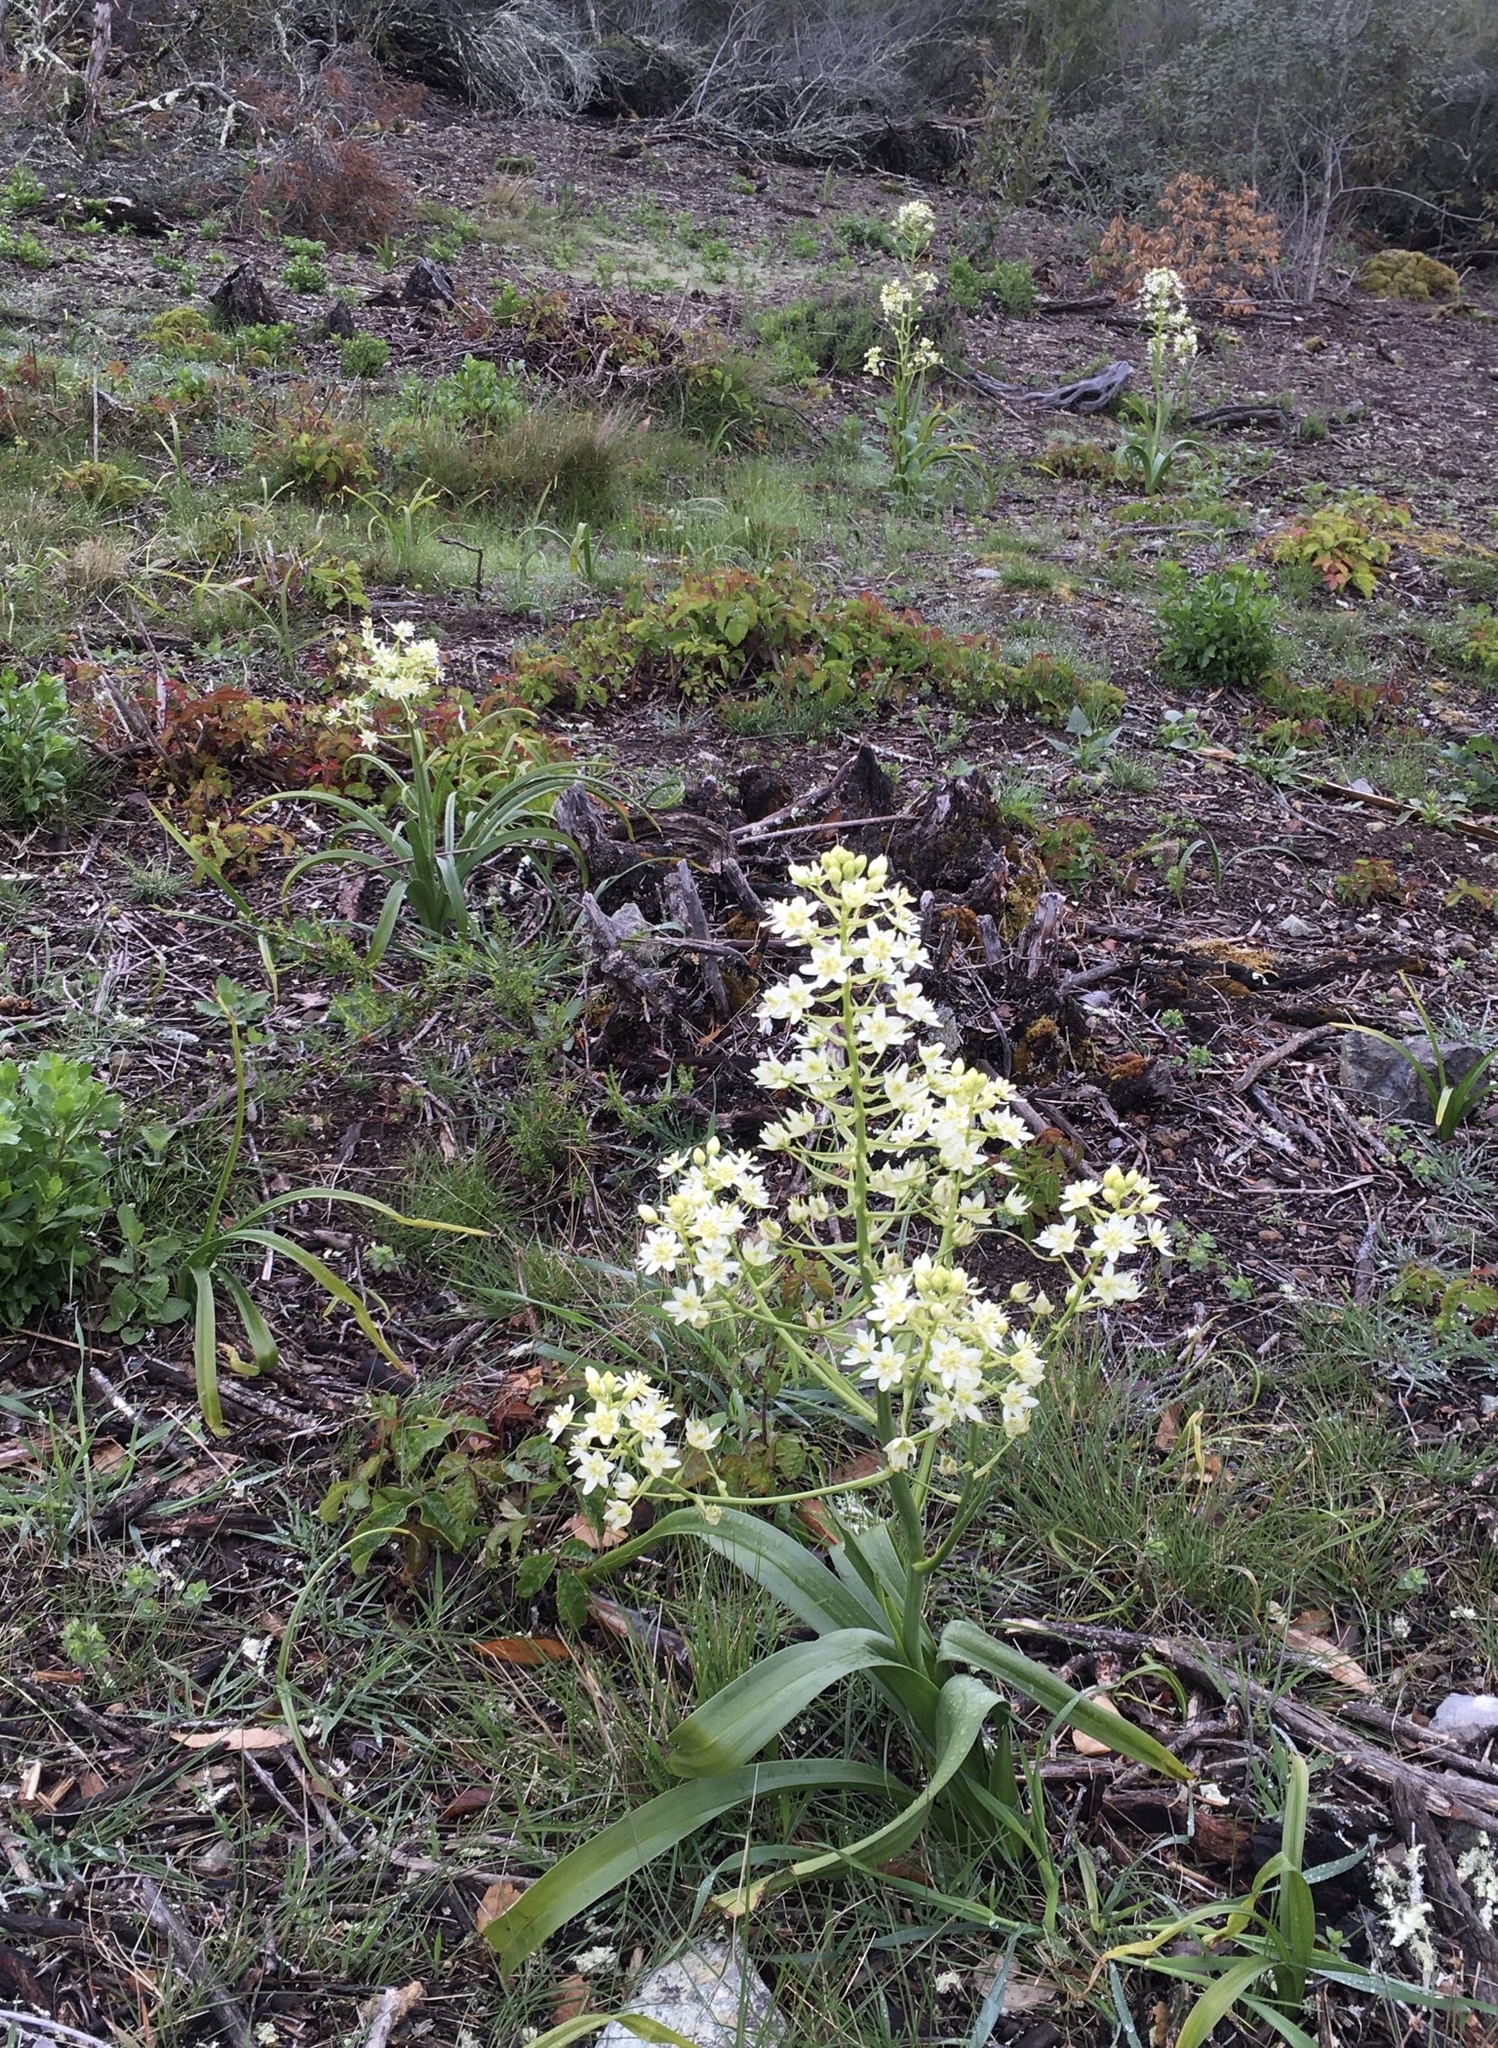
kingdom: Plantae
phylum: Tracheophyta
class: Liliopsida
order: Liliales
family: Melanthiaceae
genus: Toxicoscordion
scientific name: Toxicoscordion fremontii
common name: Fremont's death camas
